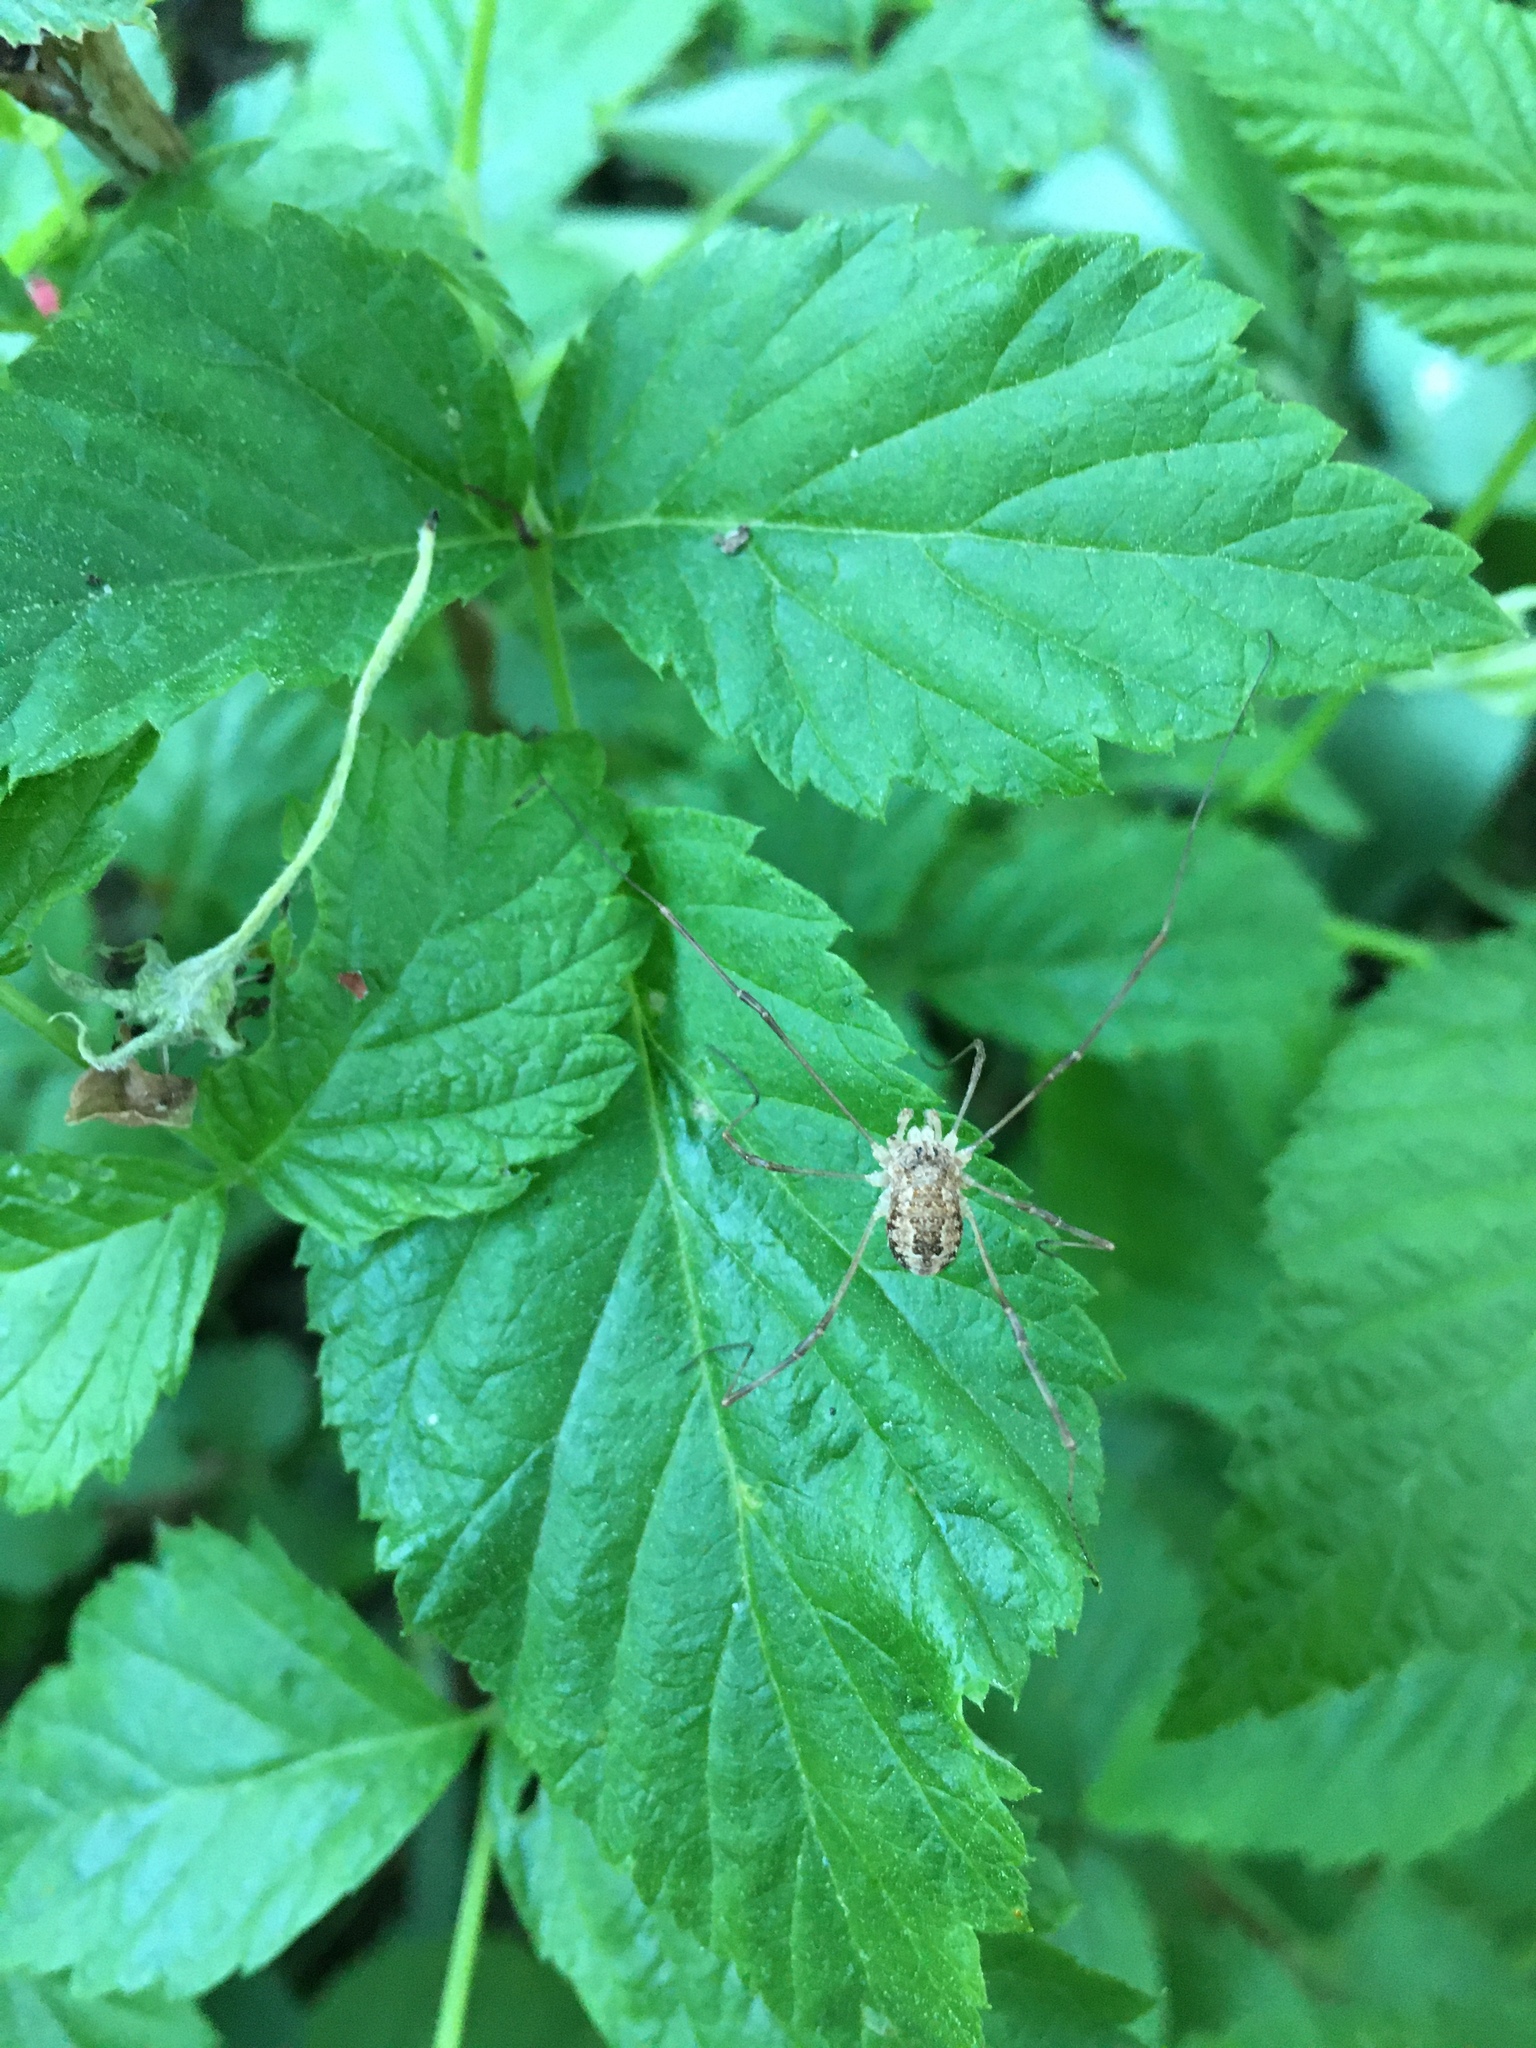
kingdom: Animalia
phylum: Arthropoda
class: Arachnida
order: Opiliones
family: Phalangiidae
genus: Rilaena
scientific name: Rilaena triangularis
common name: Spring harvestman
